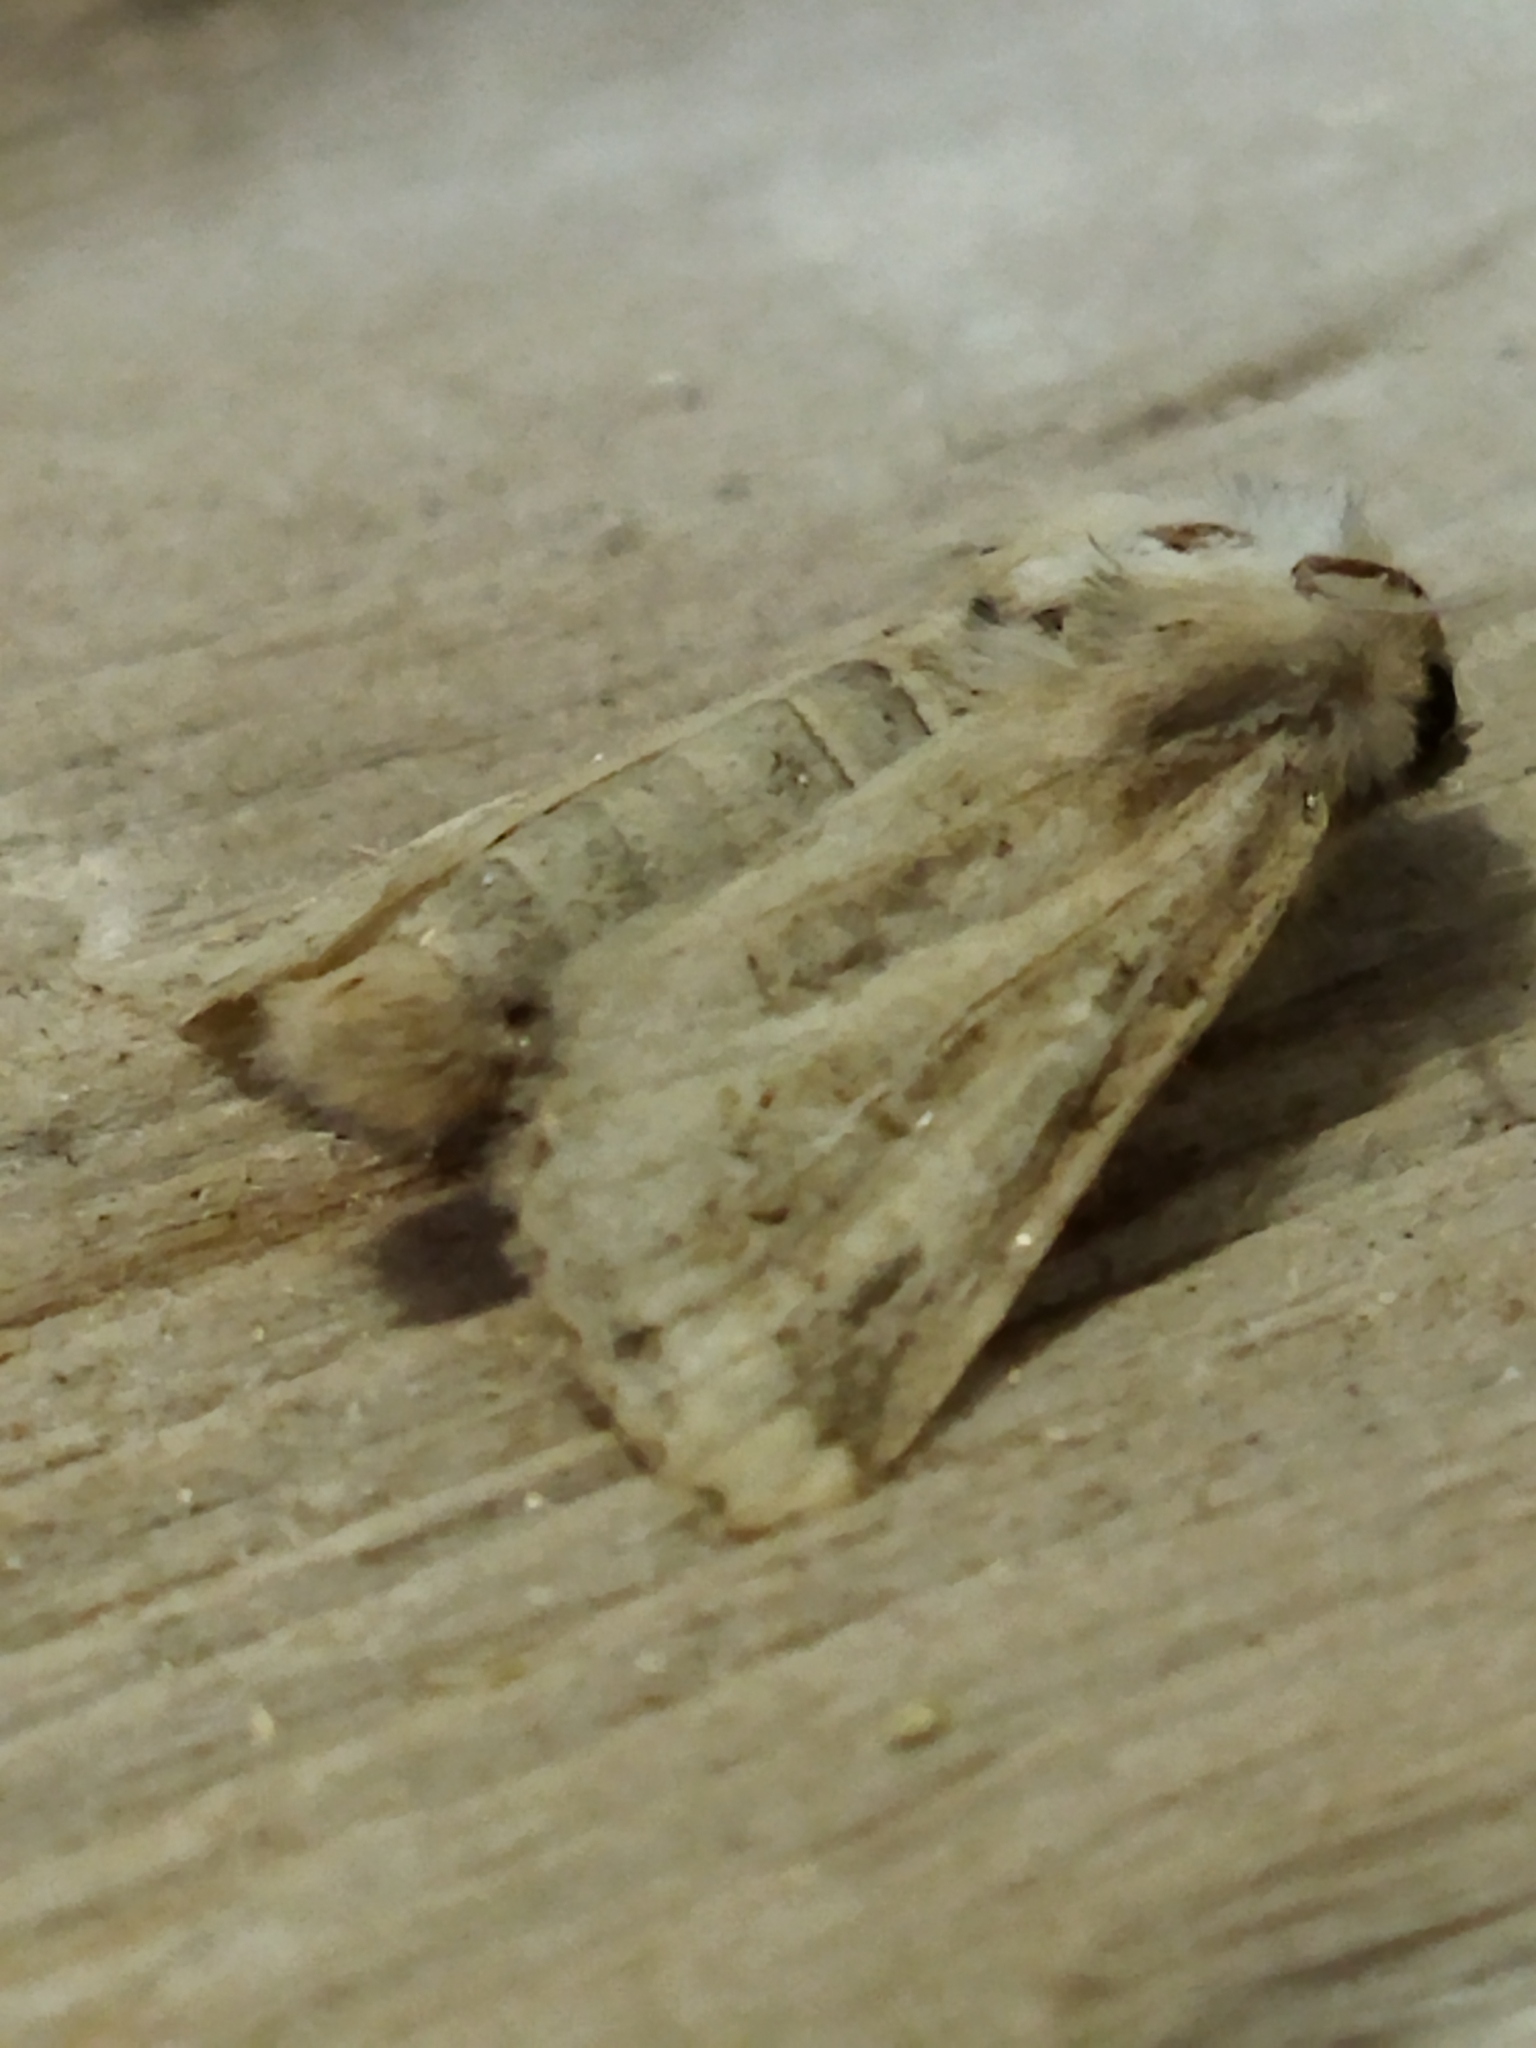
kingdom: Animalia
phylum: Arthropoda
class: Insecta
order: Lepidoptera
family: Noctuidae
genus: Luperina
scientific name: Luperina dumerilii
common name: Dumeril's rustic
